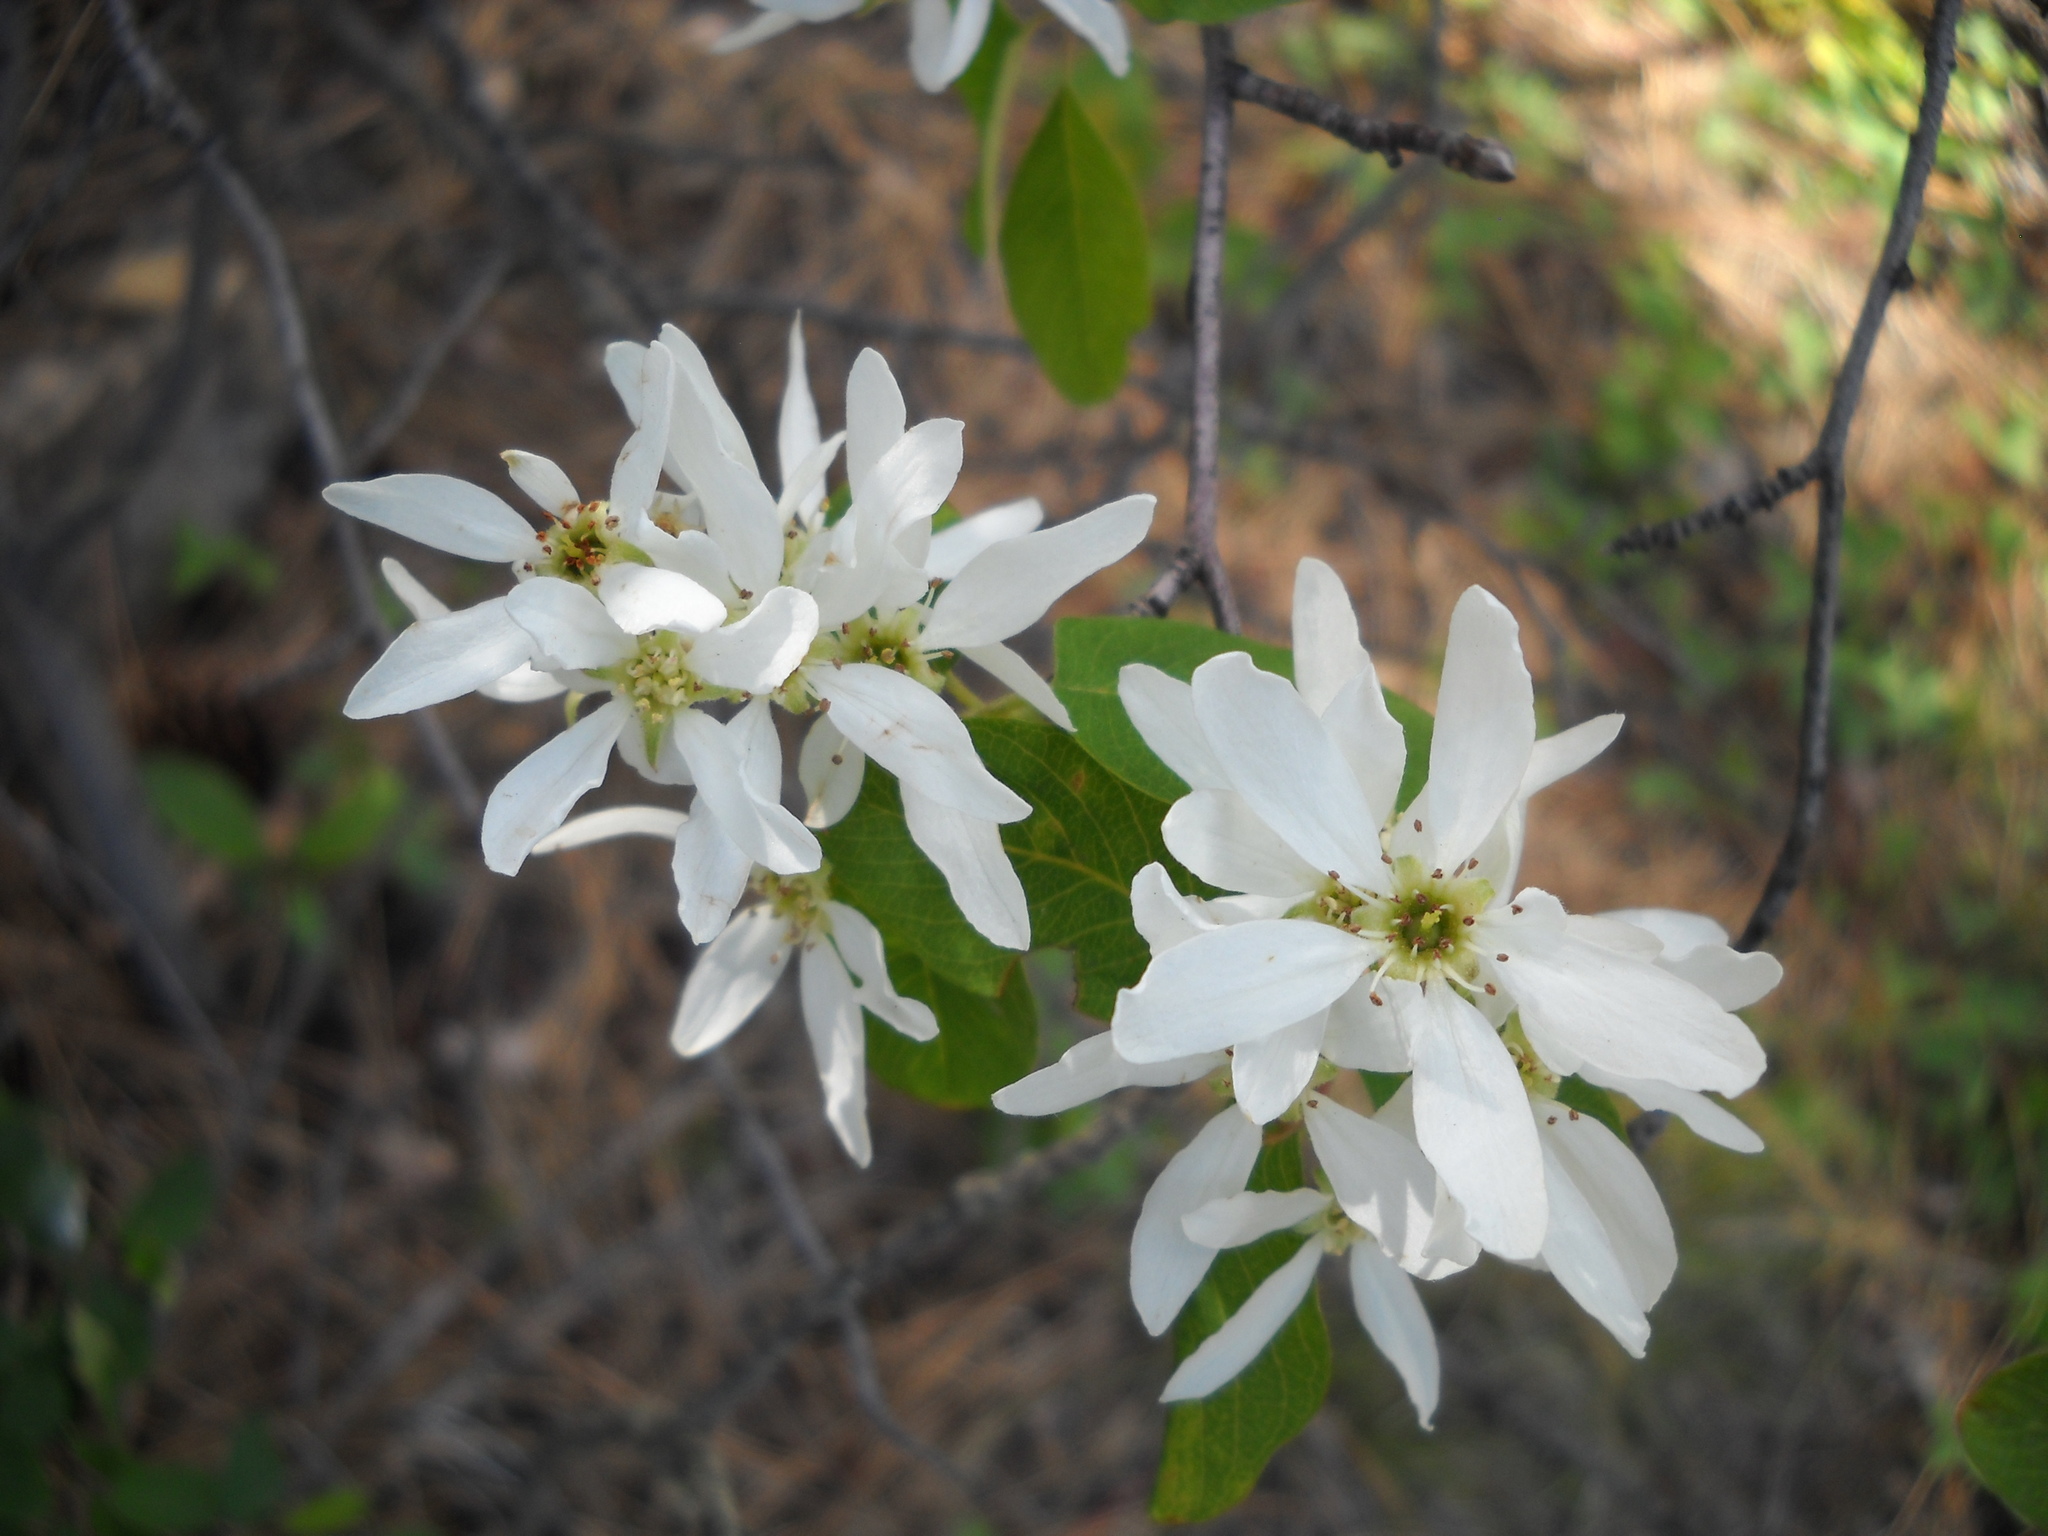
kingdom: Plantae
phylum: Tracheophyta
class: Magnoliopsida
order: Rosales
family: Rosaceae
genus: Amelanchier
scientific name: Amelanchier alnifolia
